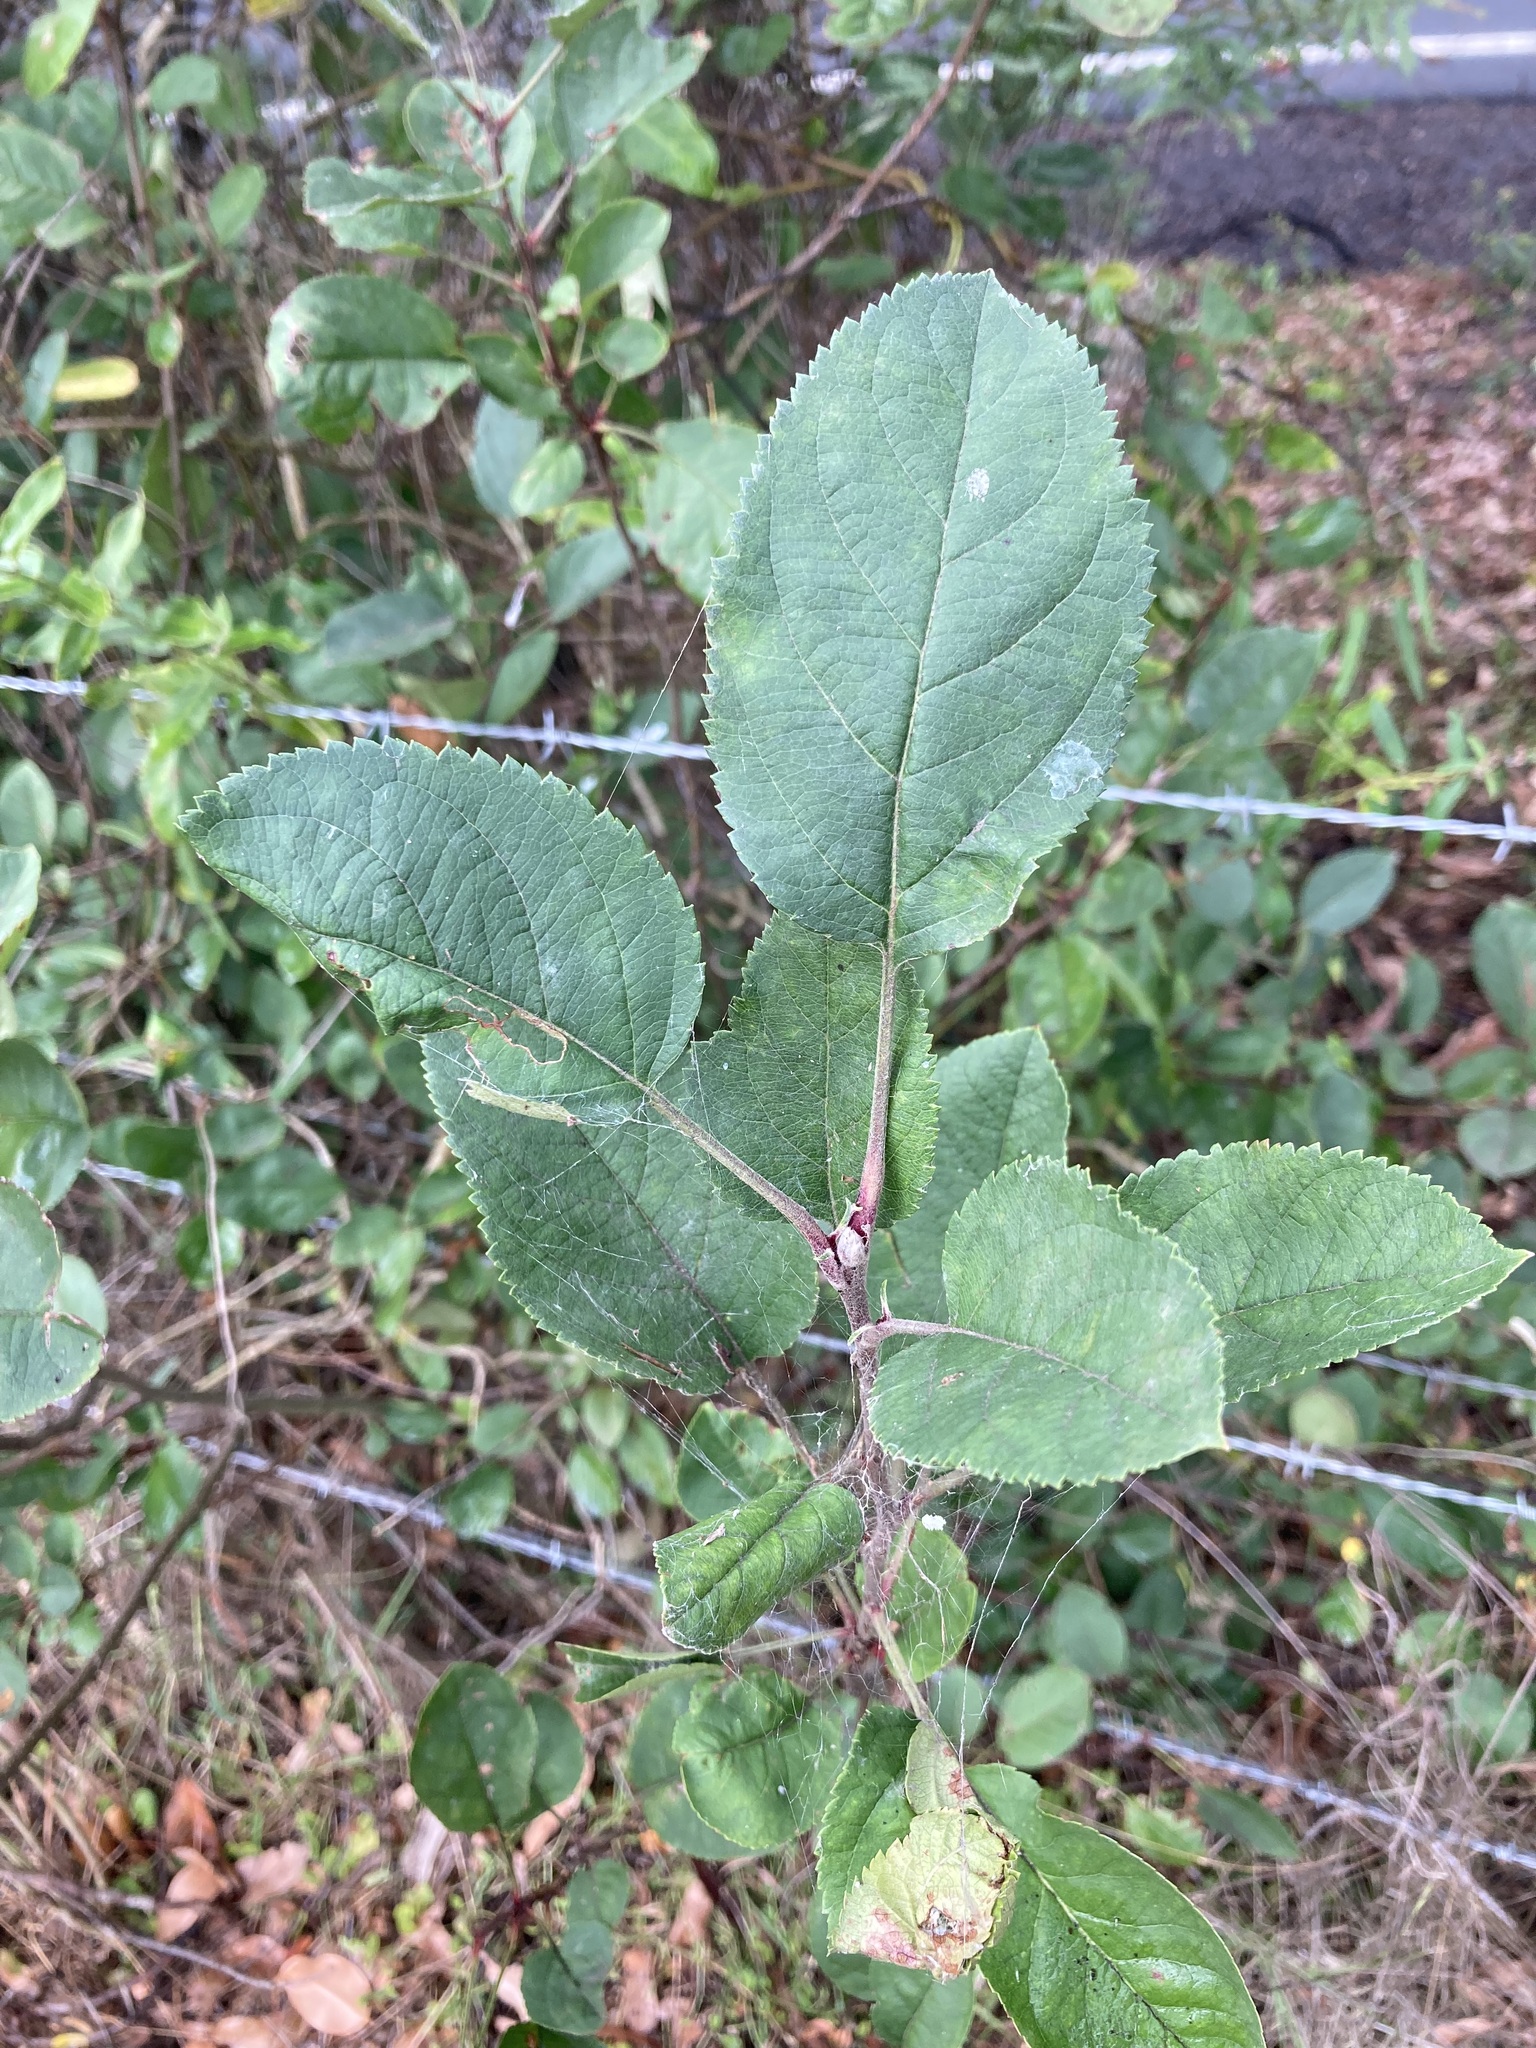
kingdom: Plantae
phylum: Tracheophyta
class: Magnoliopsida
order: Rosales
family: Rosaceae
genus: Malus
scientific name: Malus domestica
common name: Apple
